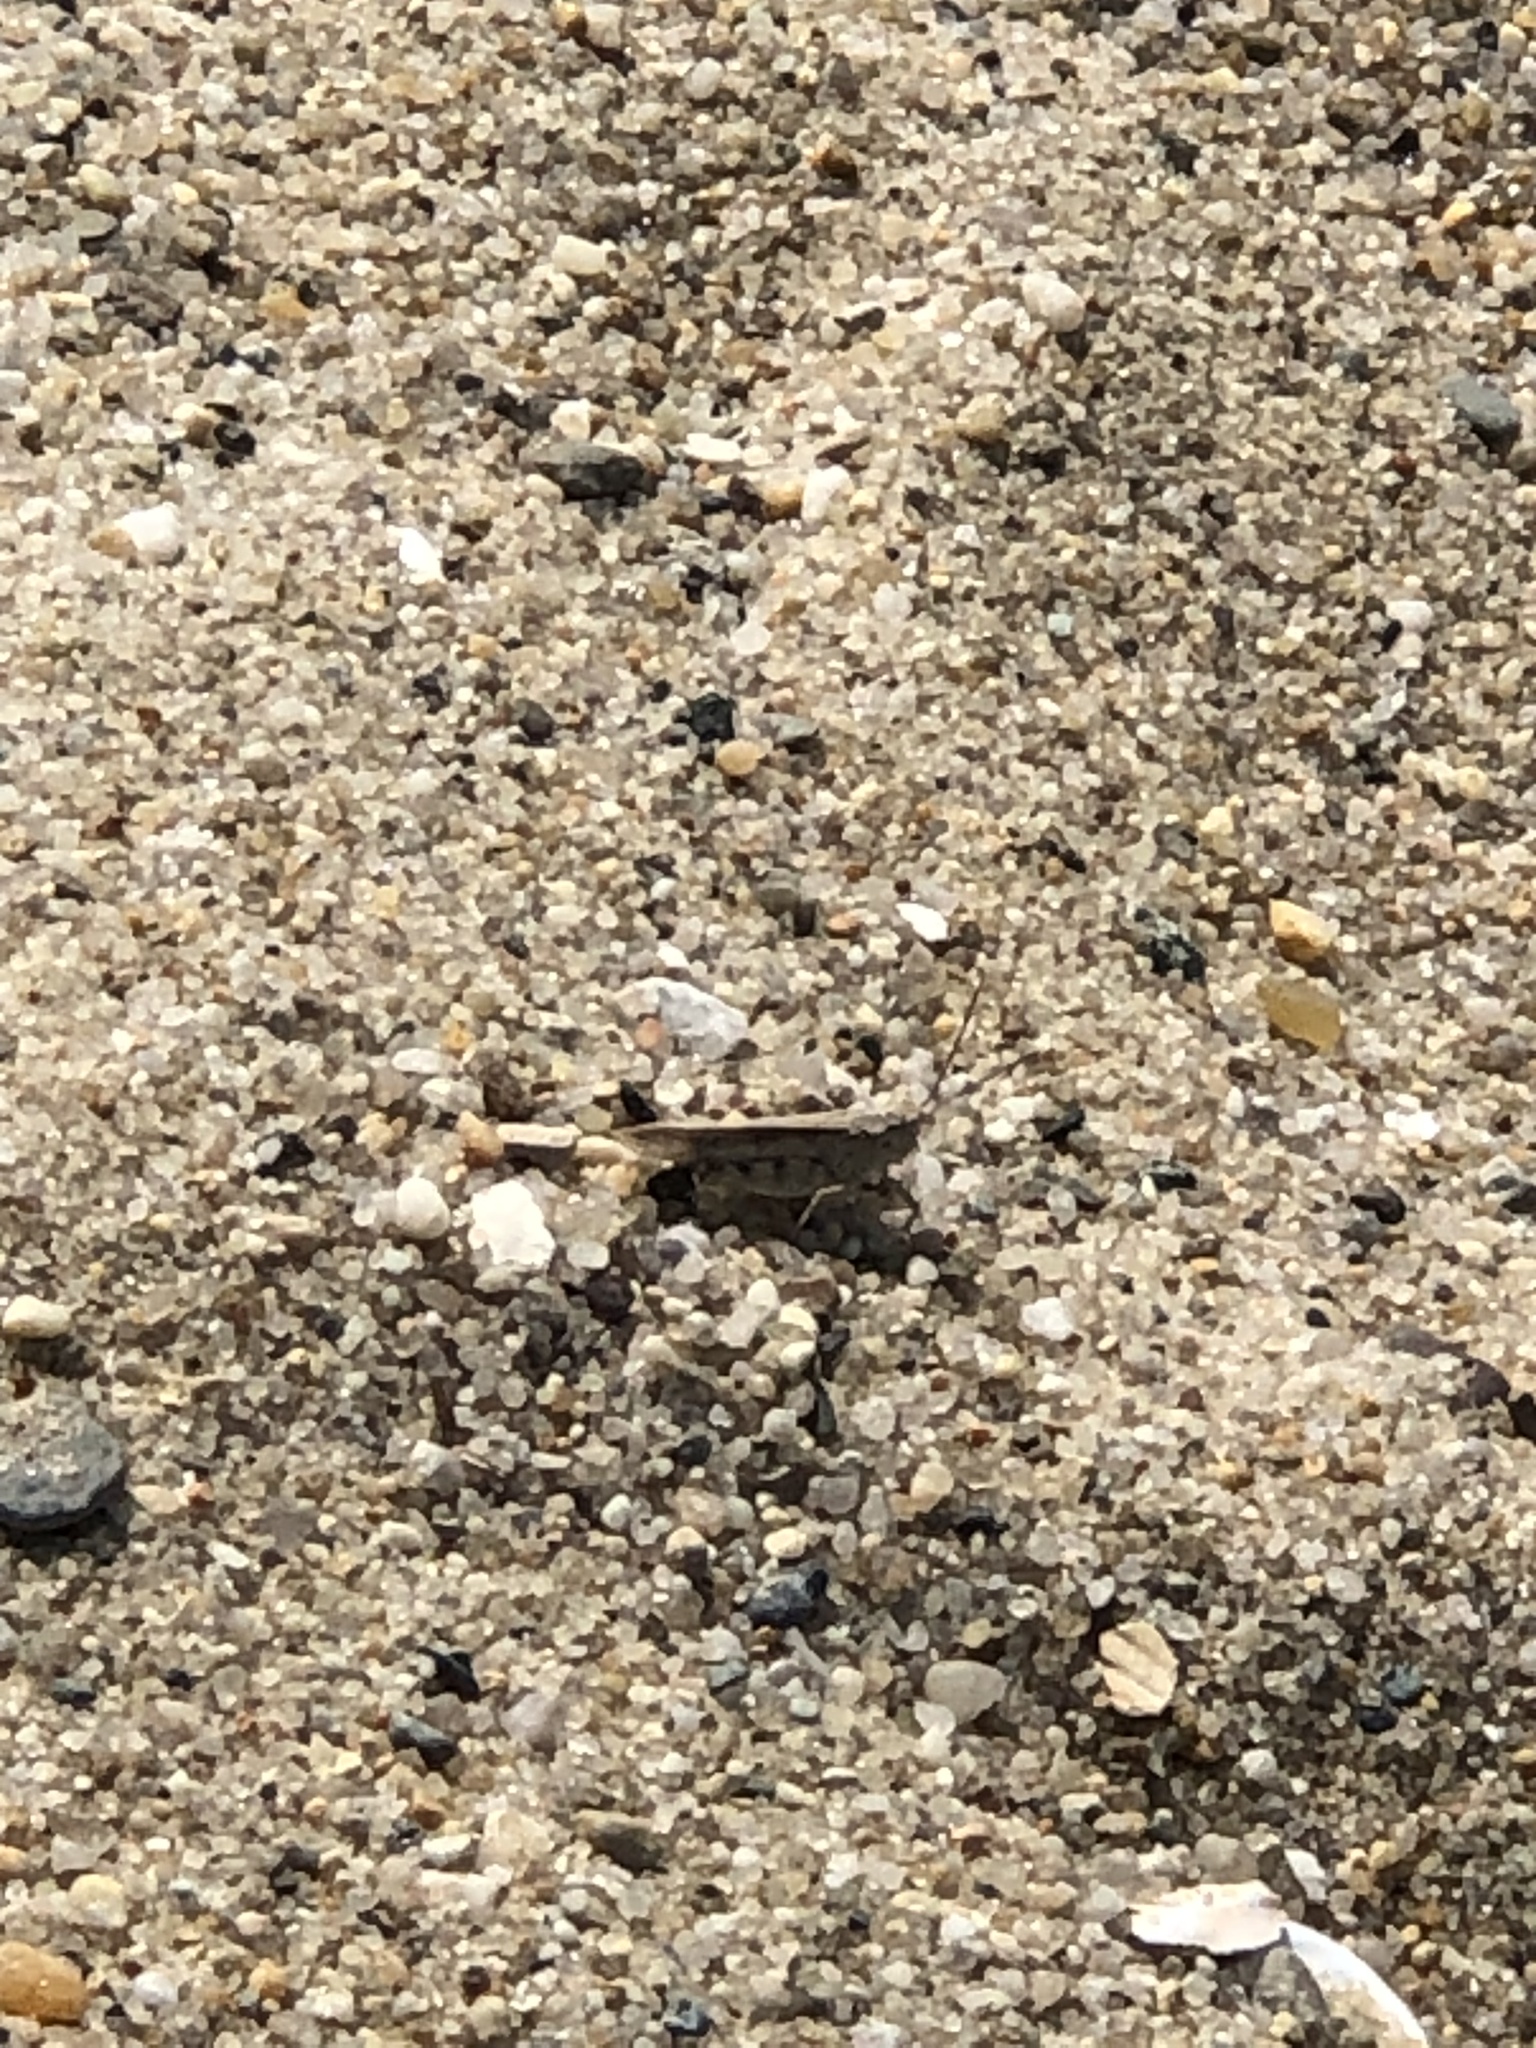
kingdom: Animalia
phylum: Arthropoda
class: Insecta
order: Orthoptera
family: Acrididae
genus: Trimerotropis
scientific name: Trimerotropis maritima
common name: Seaside locust
